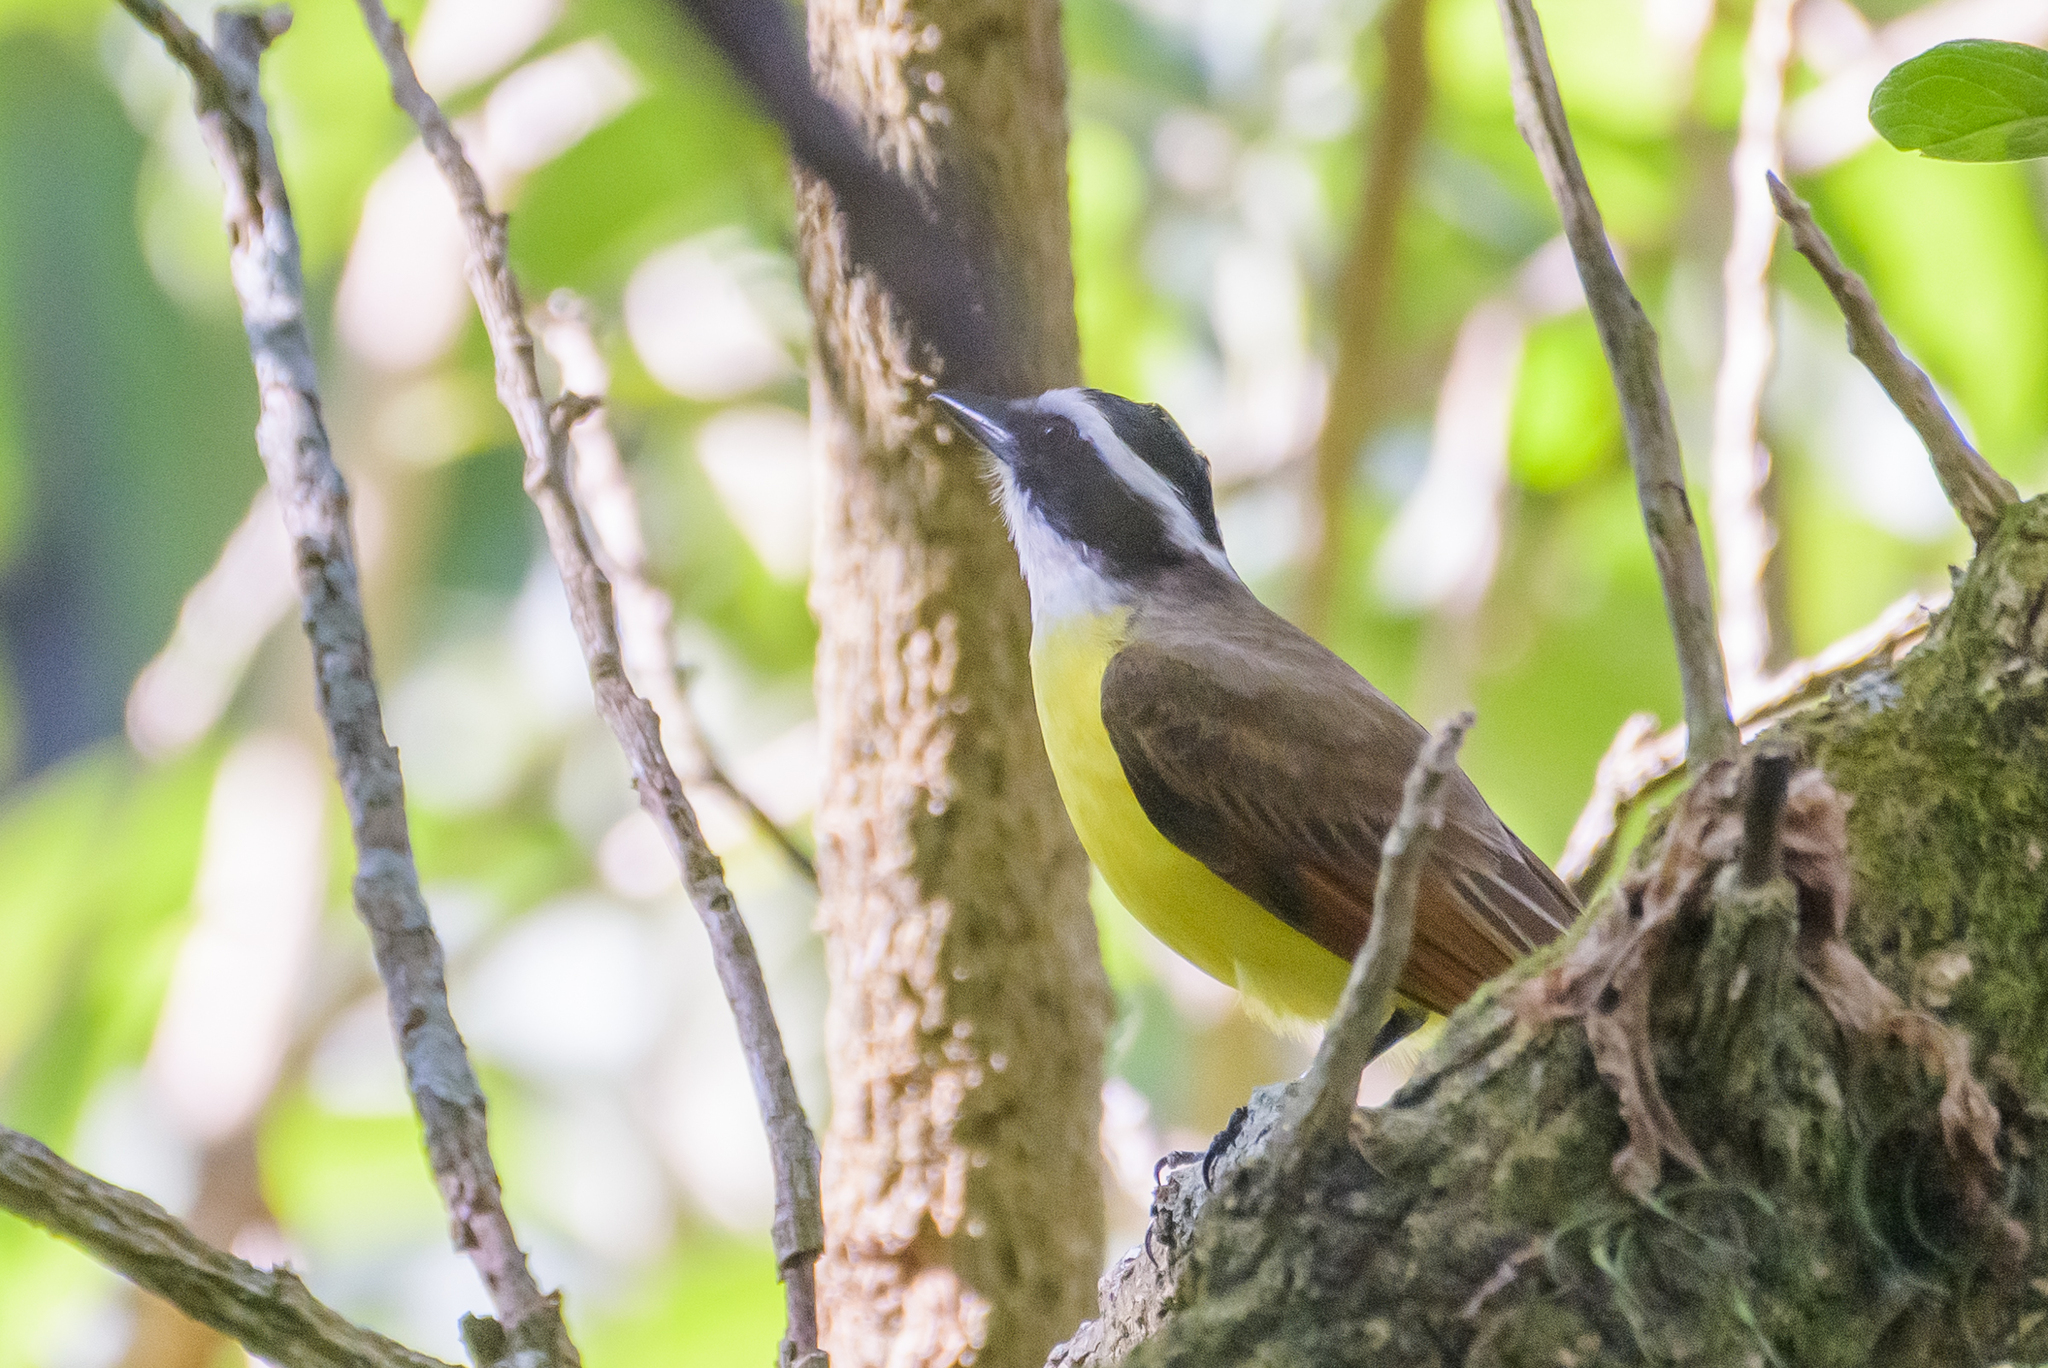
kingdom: Animalia
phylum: Chordata
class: Aves
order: Passeriformes
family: Tyrannidae
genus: Pitangus
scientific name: Pitangus sulphuratus
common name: Great kiskadee
